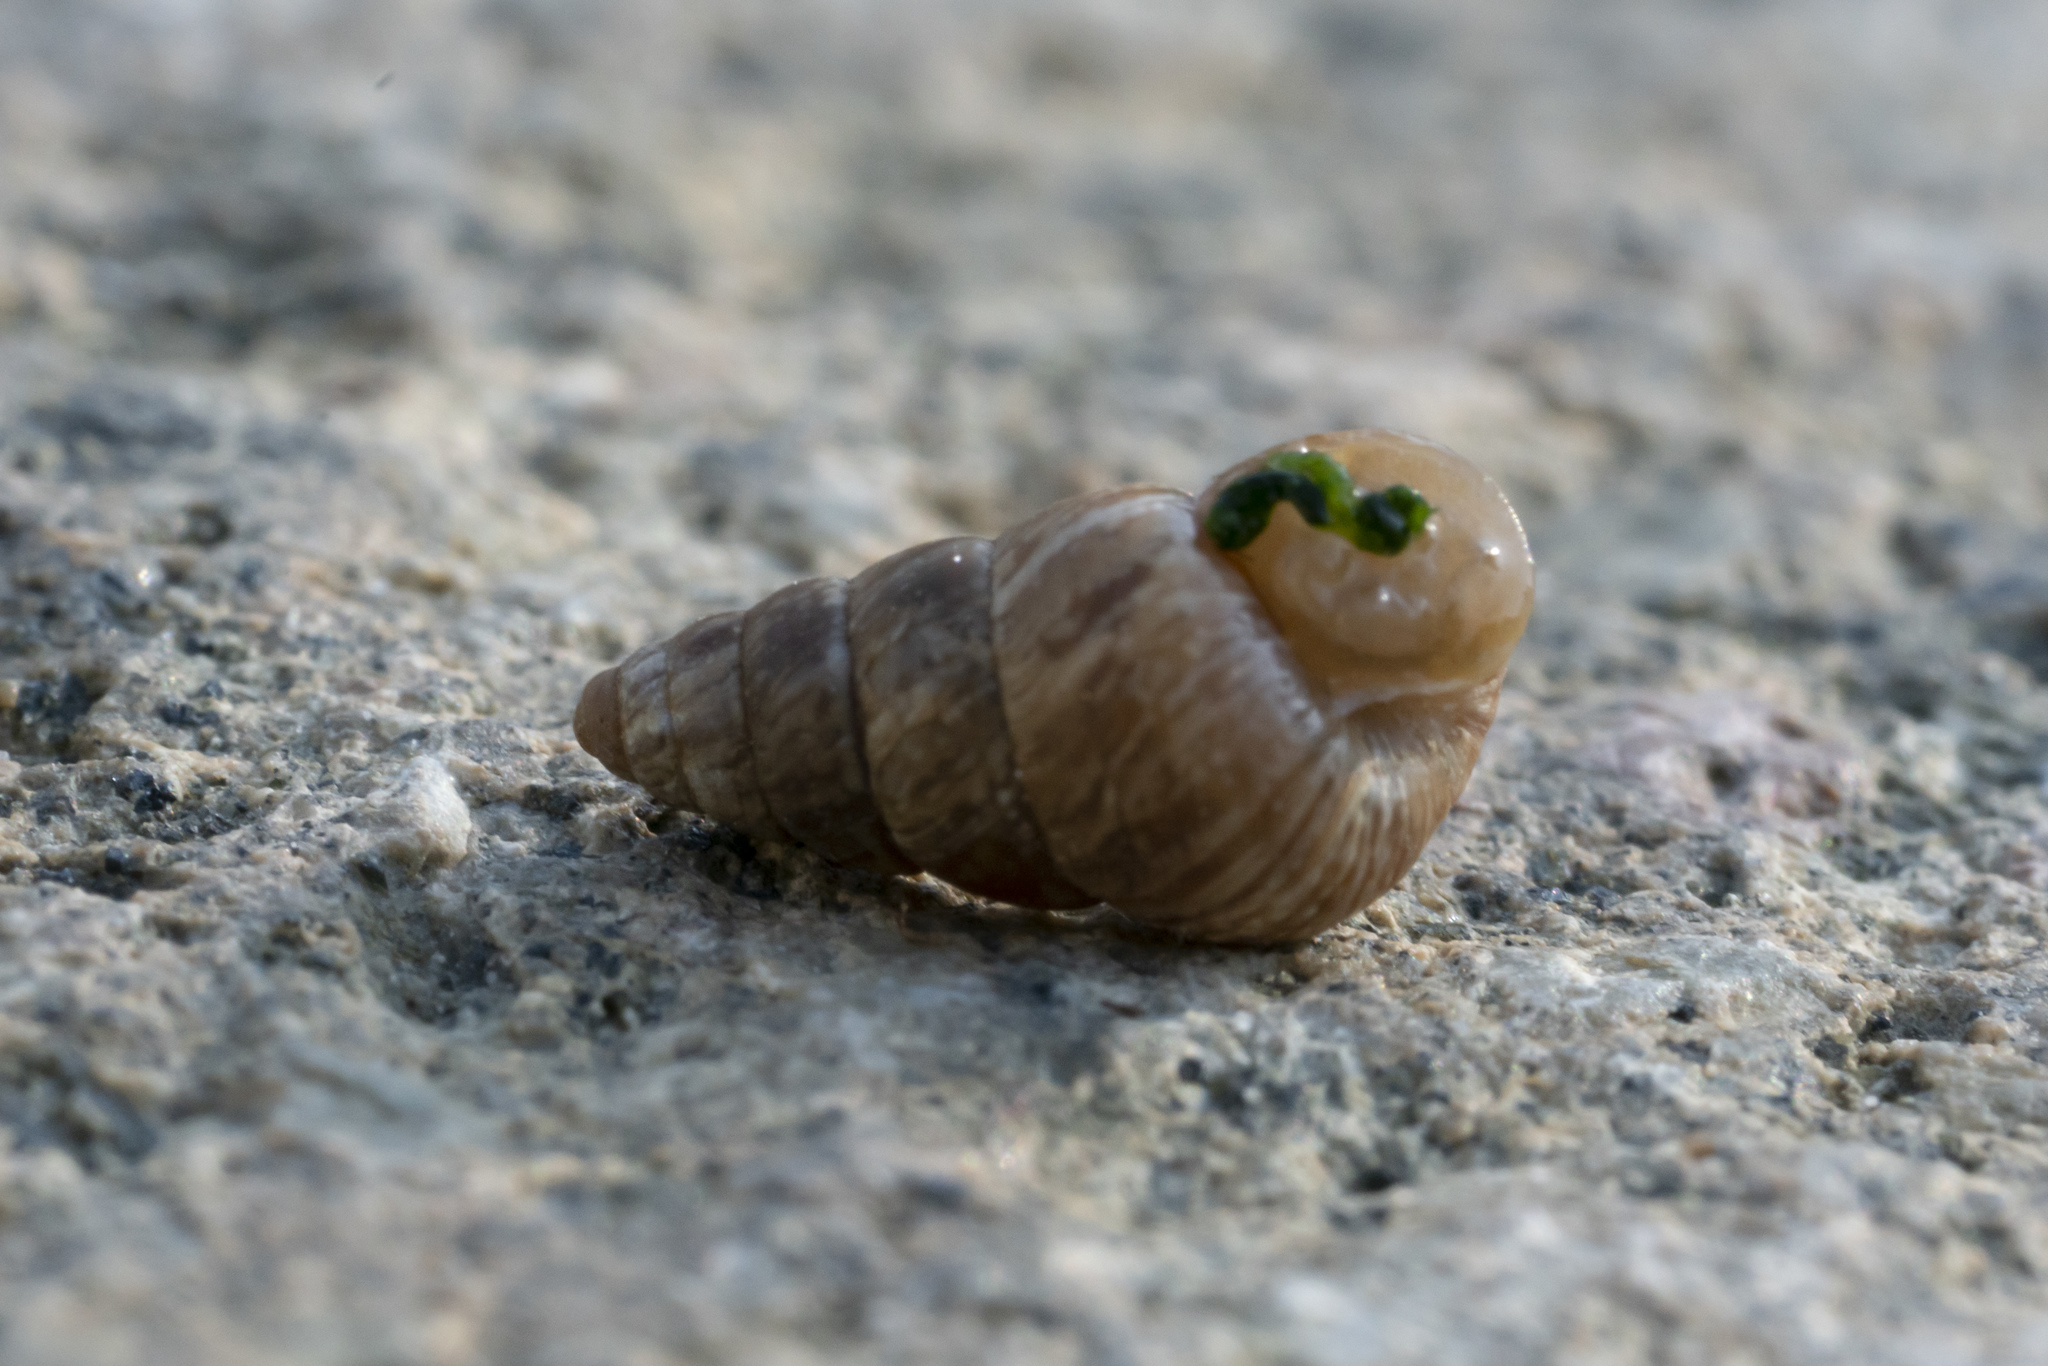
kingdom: Animalia
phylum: Mollusca
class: Gastropoda
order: Stylommatophora
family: Geomitridae
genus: Cochlicella
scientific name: Cochlicella barbara
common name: Potbellied helicellid
